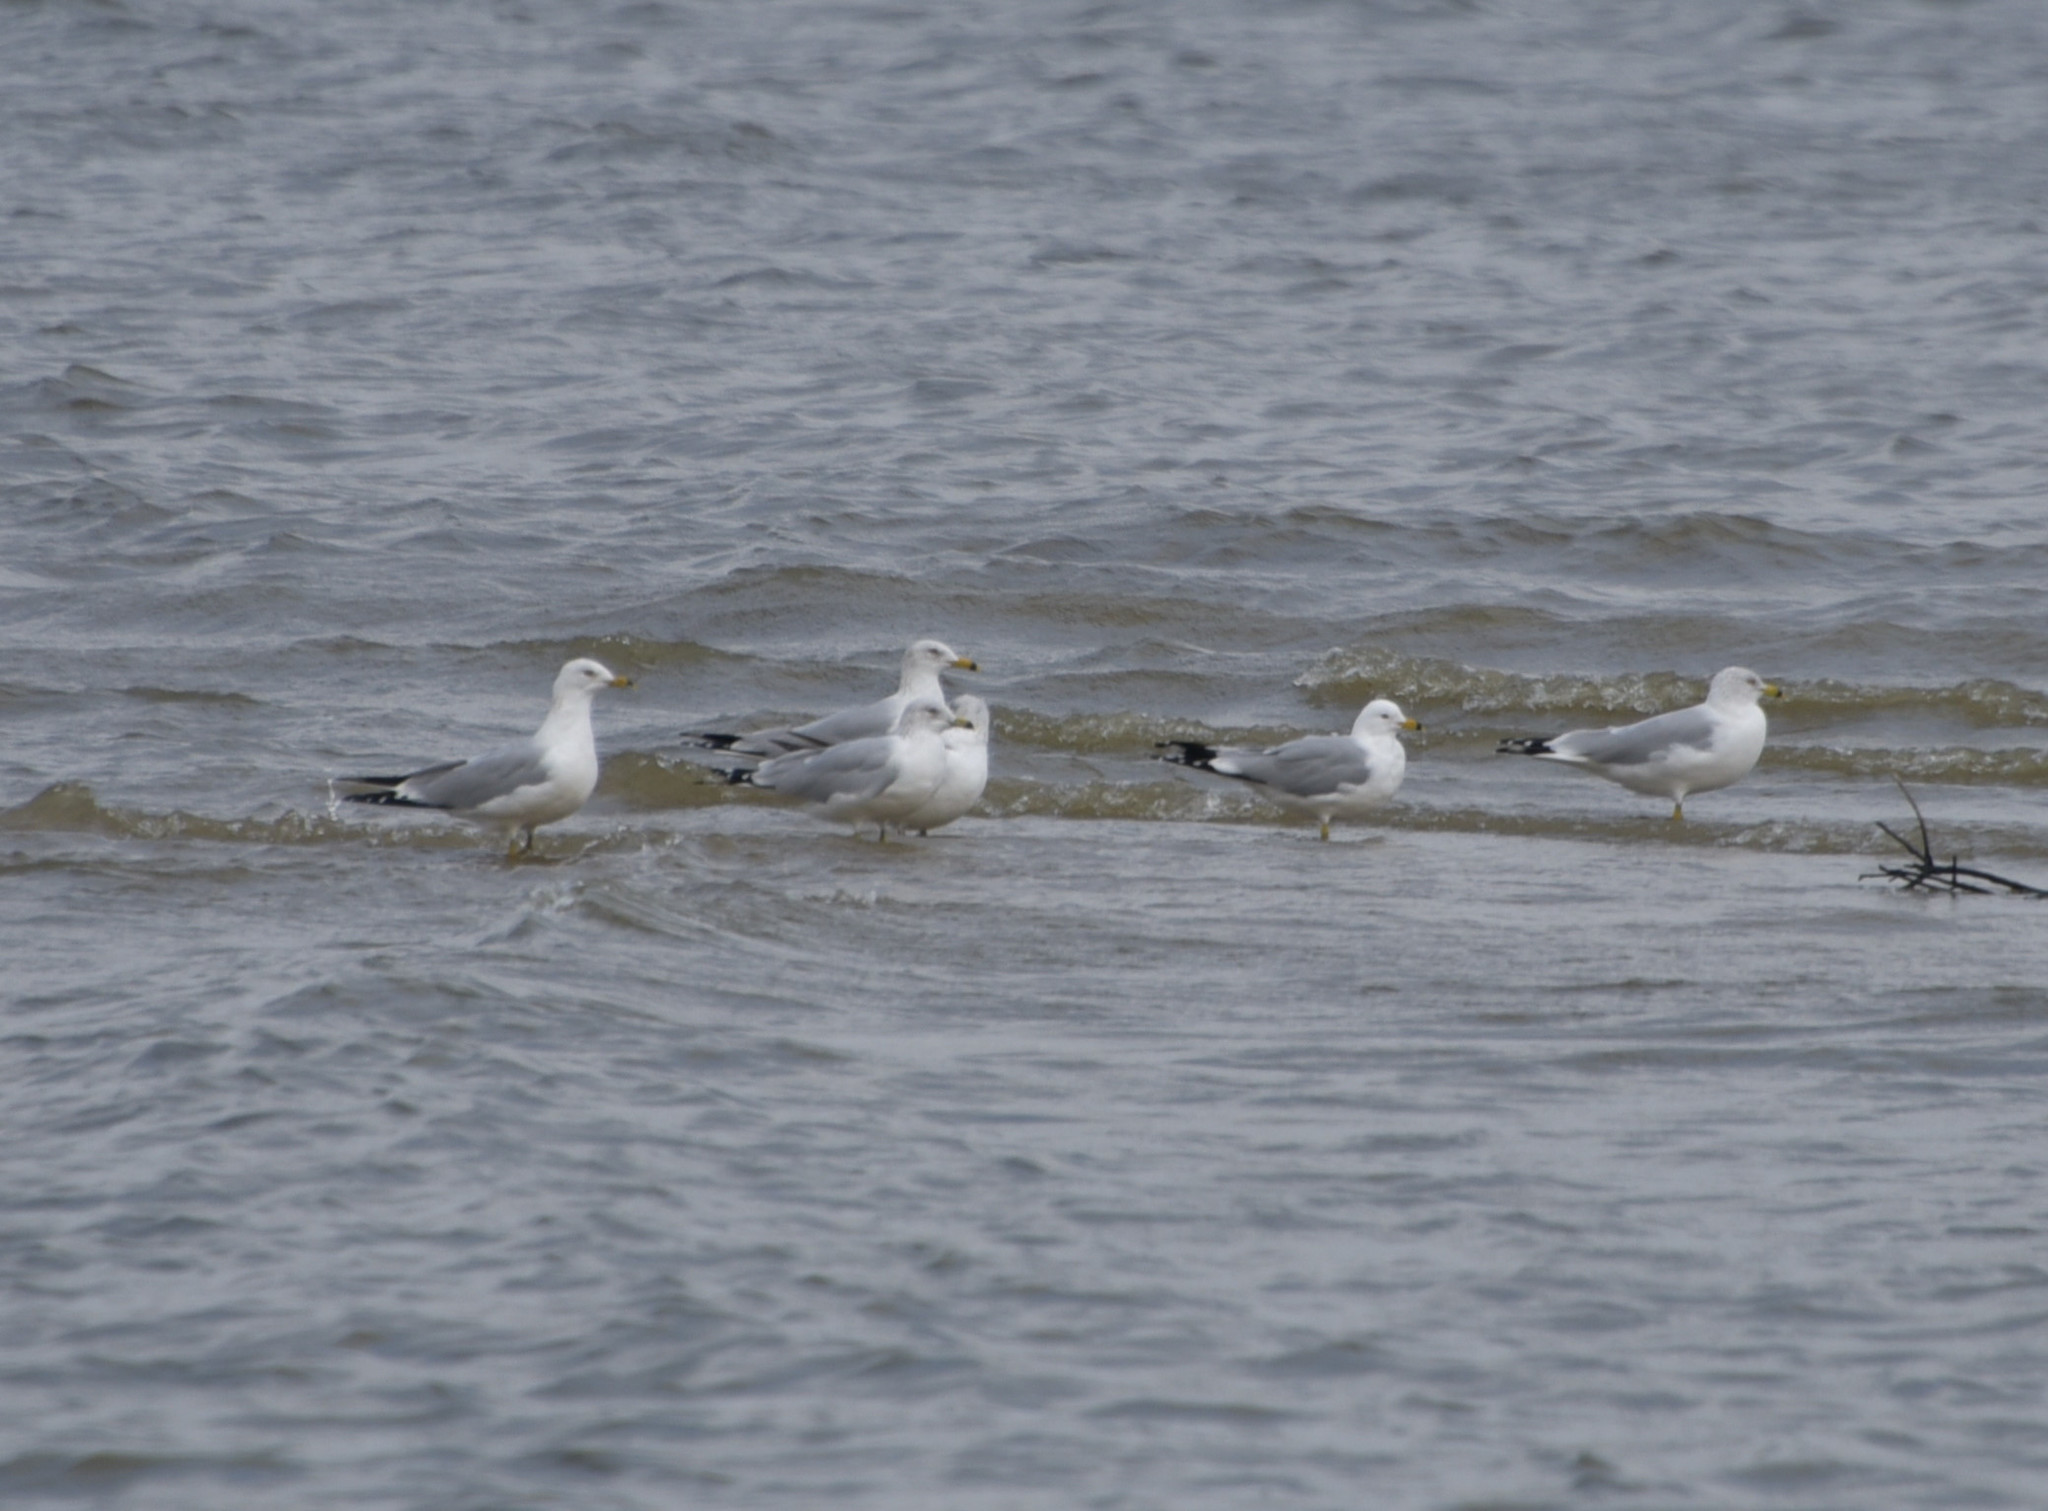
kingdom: Animalia
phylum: Chordata
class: Aves
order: Charadriiformes
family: Laridae
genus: Larus
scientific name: Larus delawarensis
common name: Ring-billed gull
